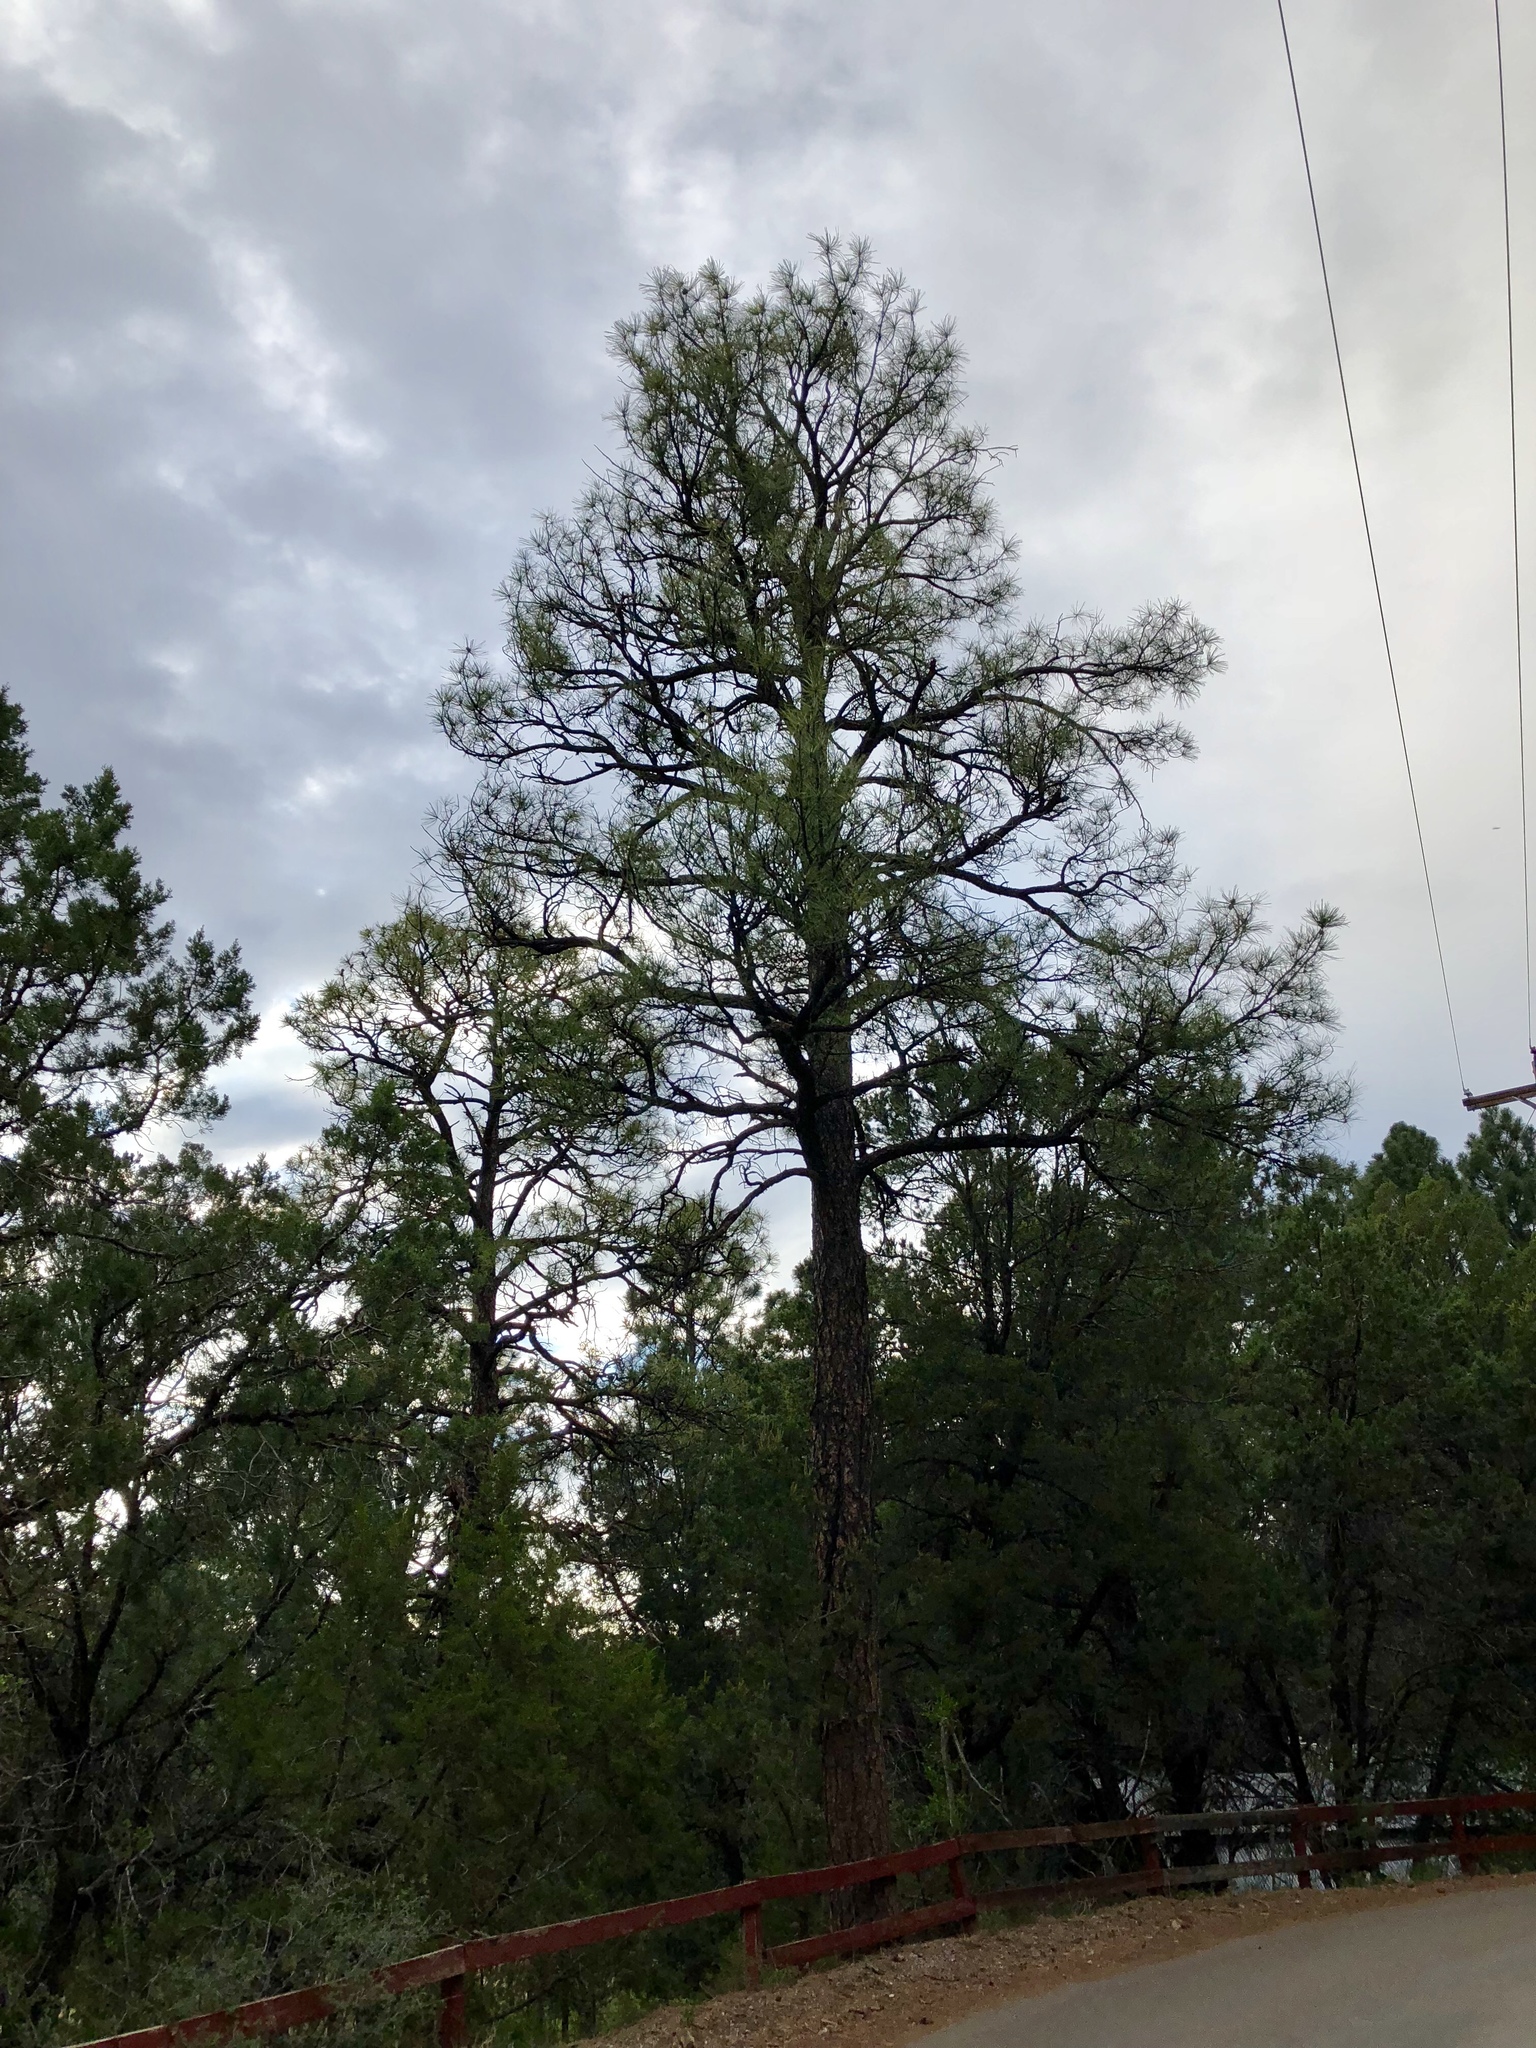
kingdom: Plantae
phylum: Tracheophyta
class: Pinopsida
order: Pinales
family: Pinaceae
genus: Pinus
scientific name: Pinus ponderosa
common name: Western yellow-pine
